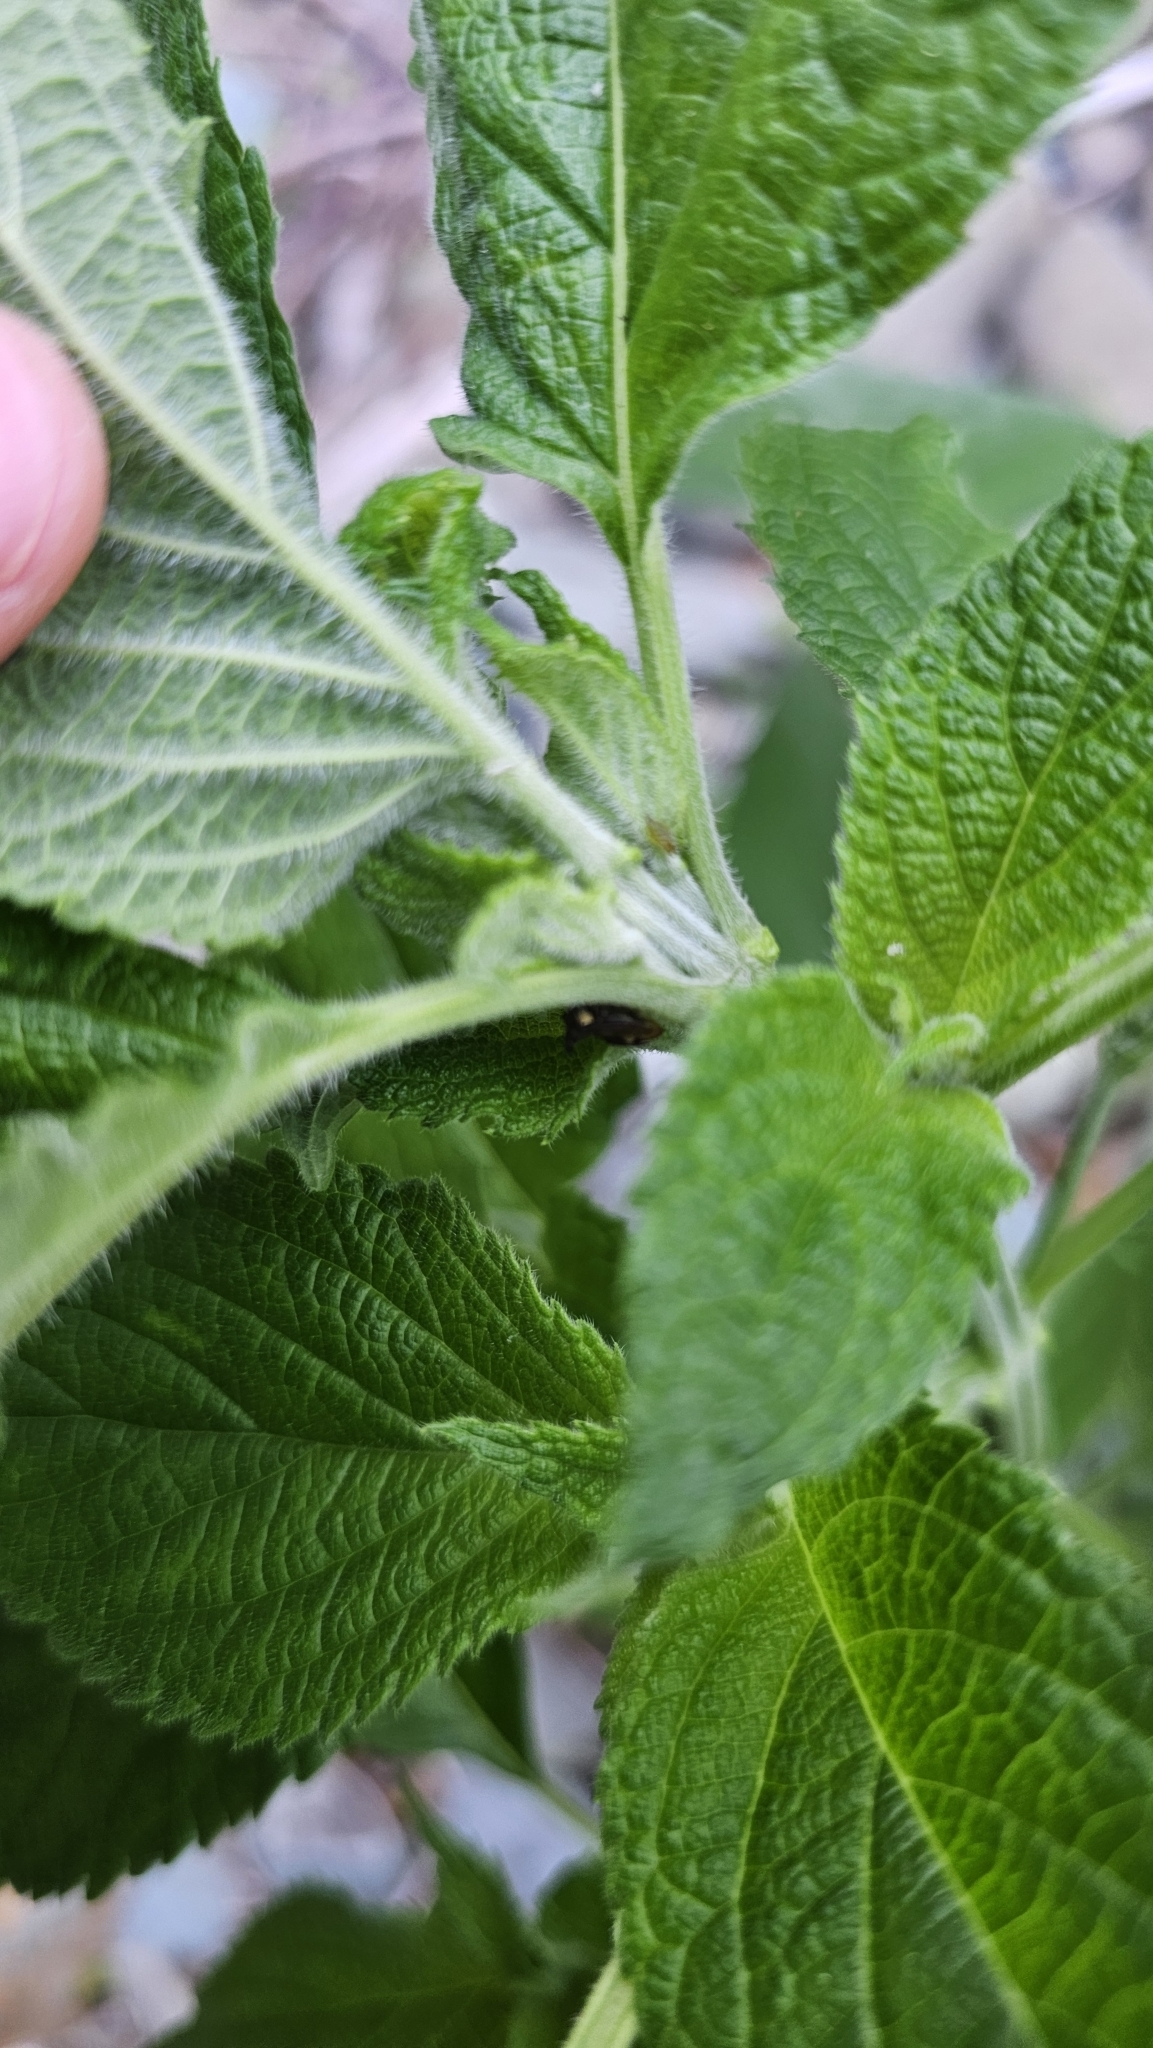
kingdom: Plantae
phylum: Tracheophyta
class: Magnoliopsida
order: Lamiales
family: Lamiaceae
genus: Salvia
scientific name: Salvia hispanica
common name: Chia
